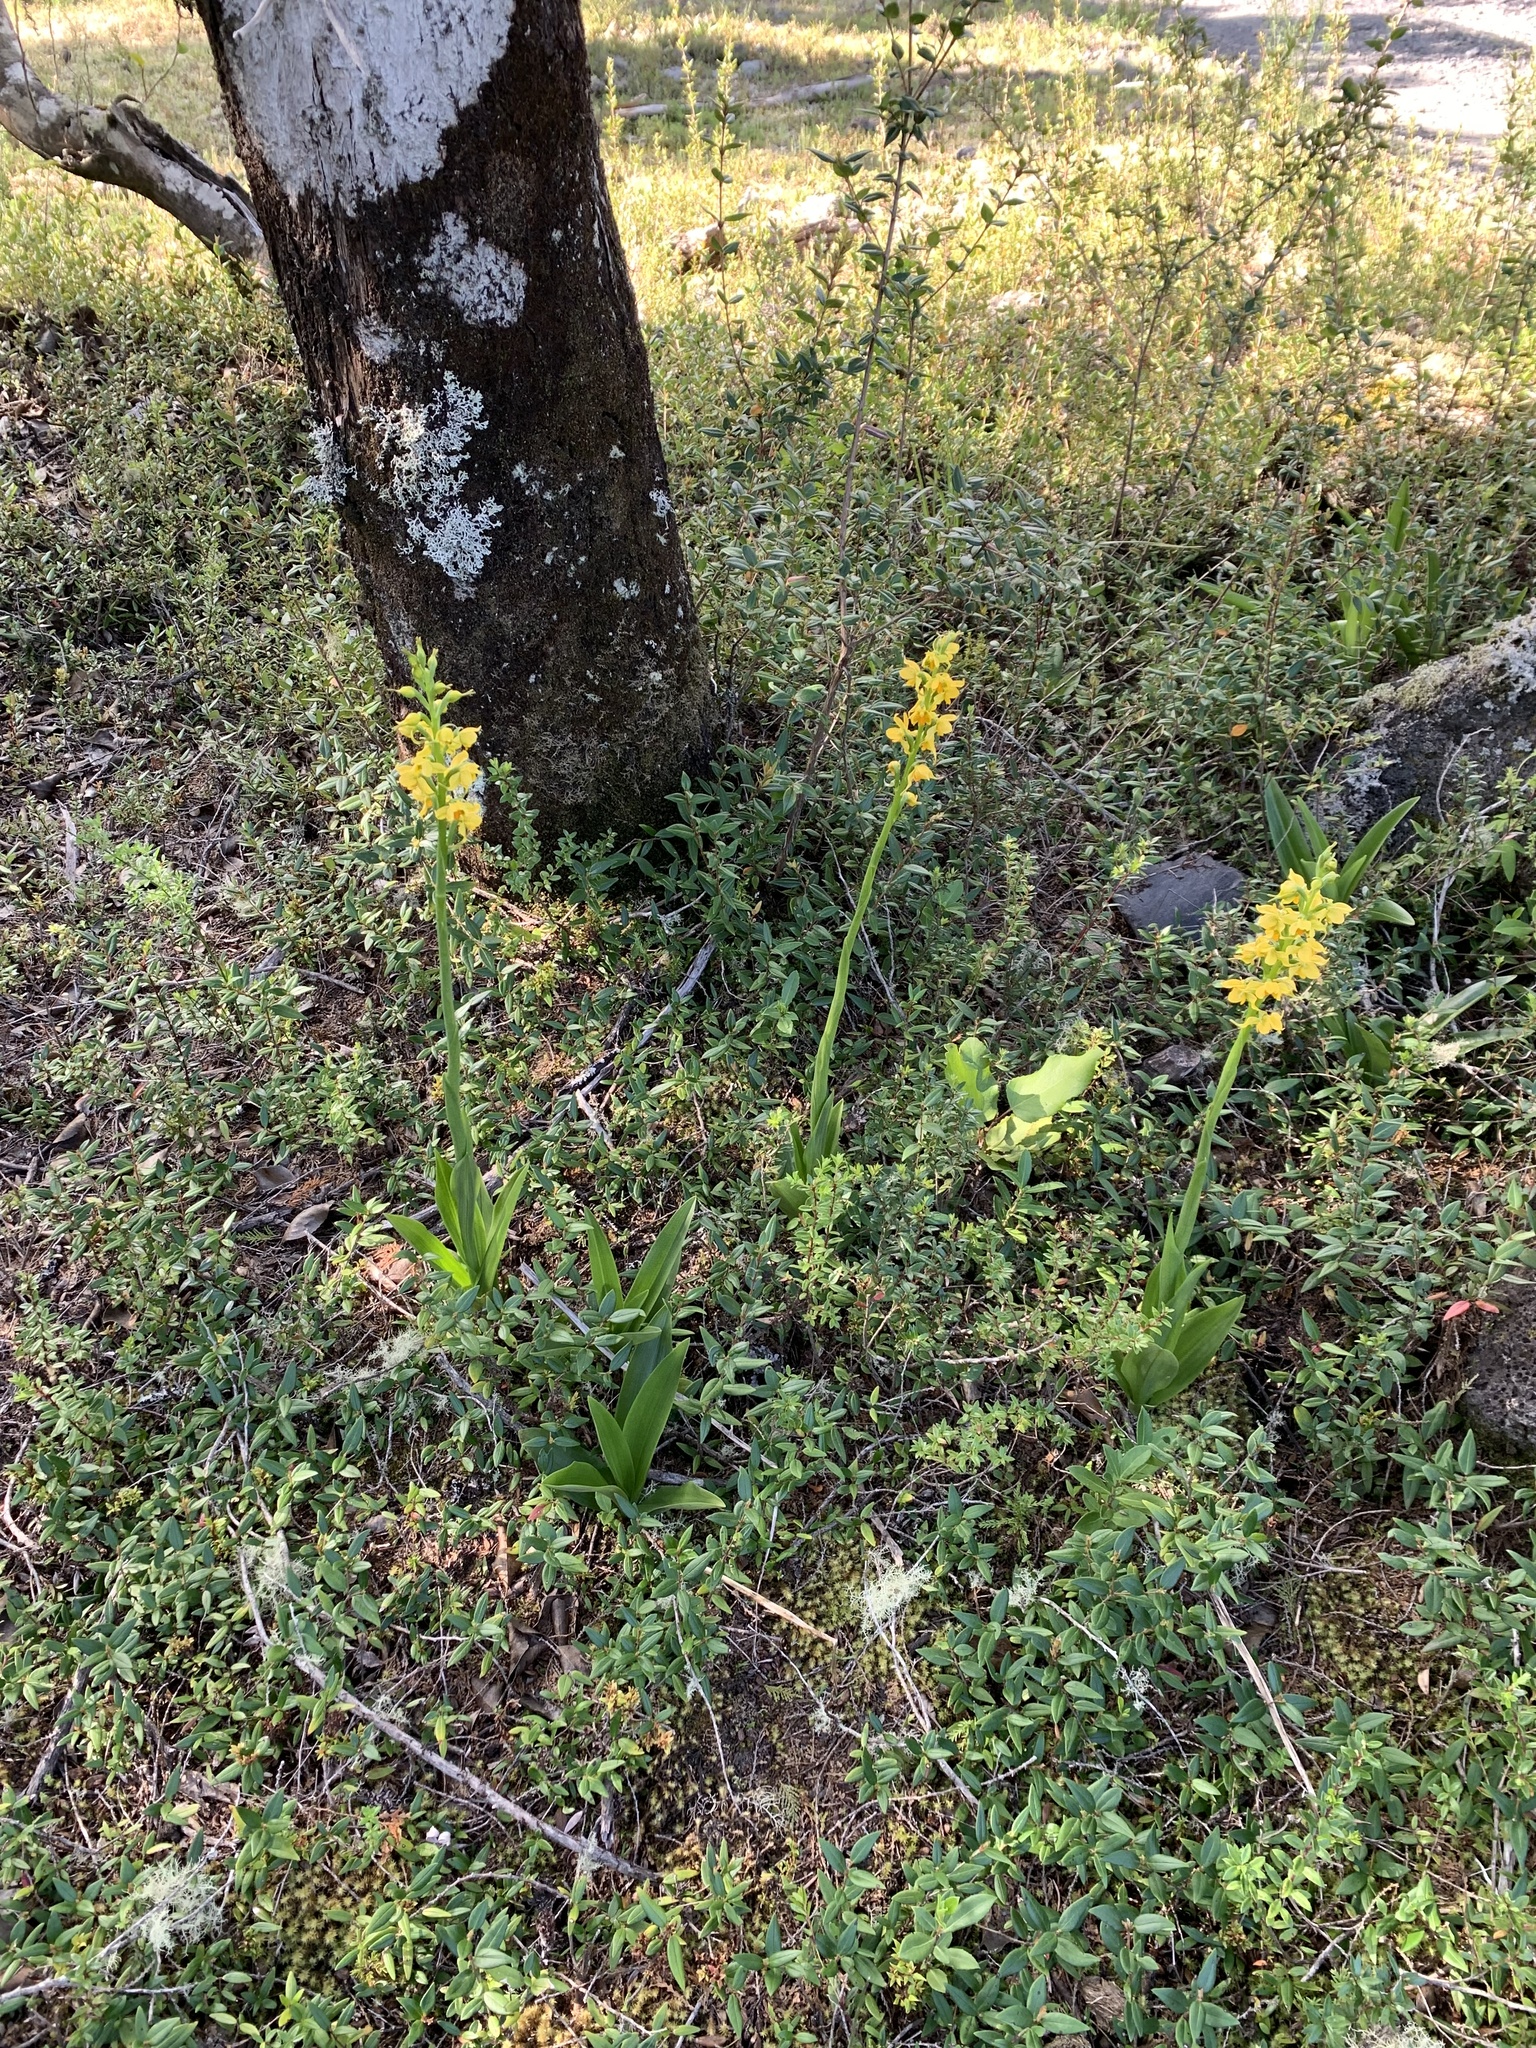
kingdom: Plantae
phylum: Tracheophyta
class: Liliopsida
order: Asparagales
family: Orchidaceae
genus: Gavilea
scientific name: Gavilea odoratissima
